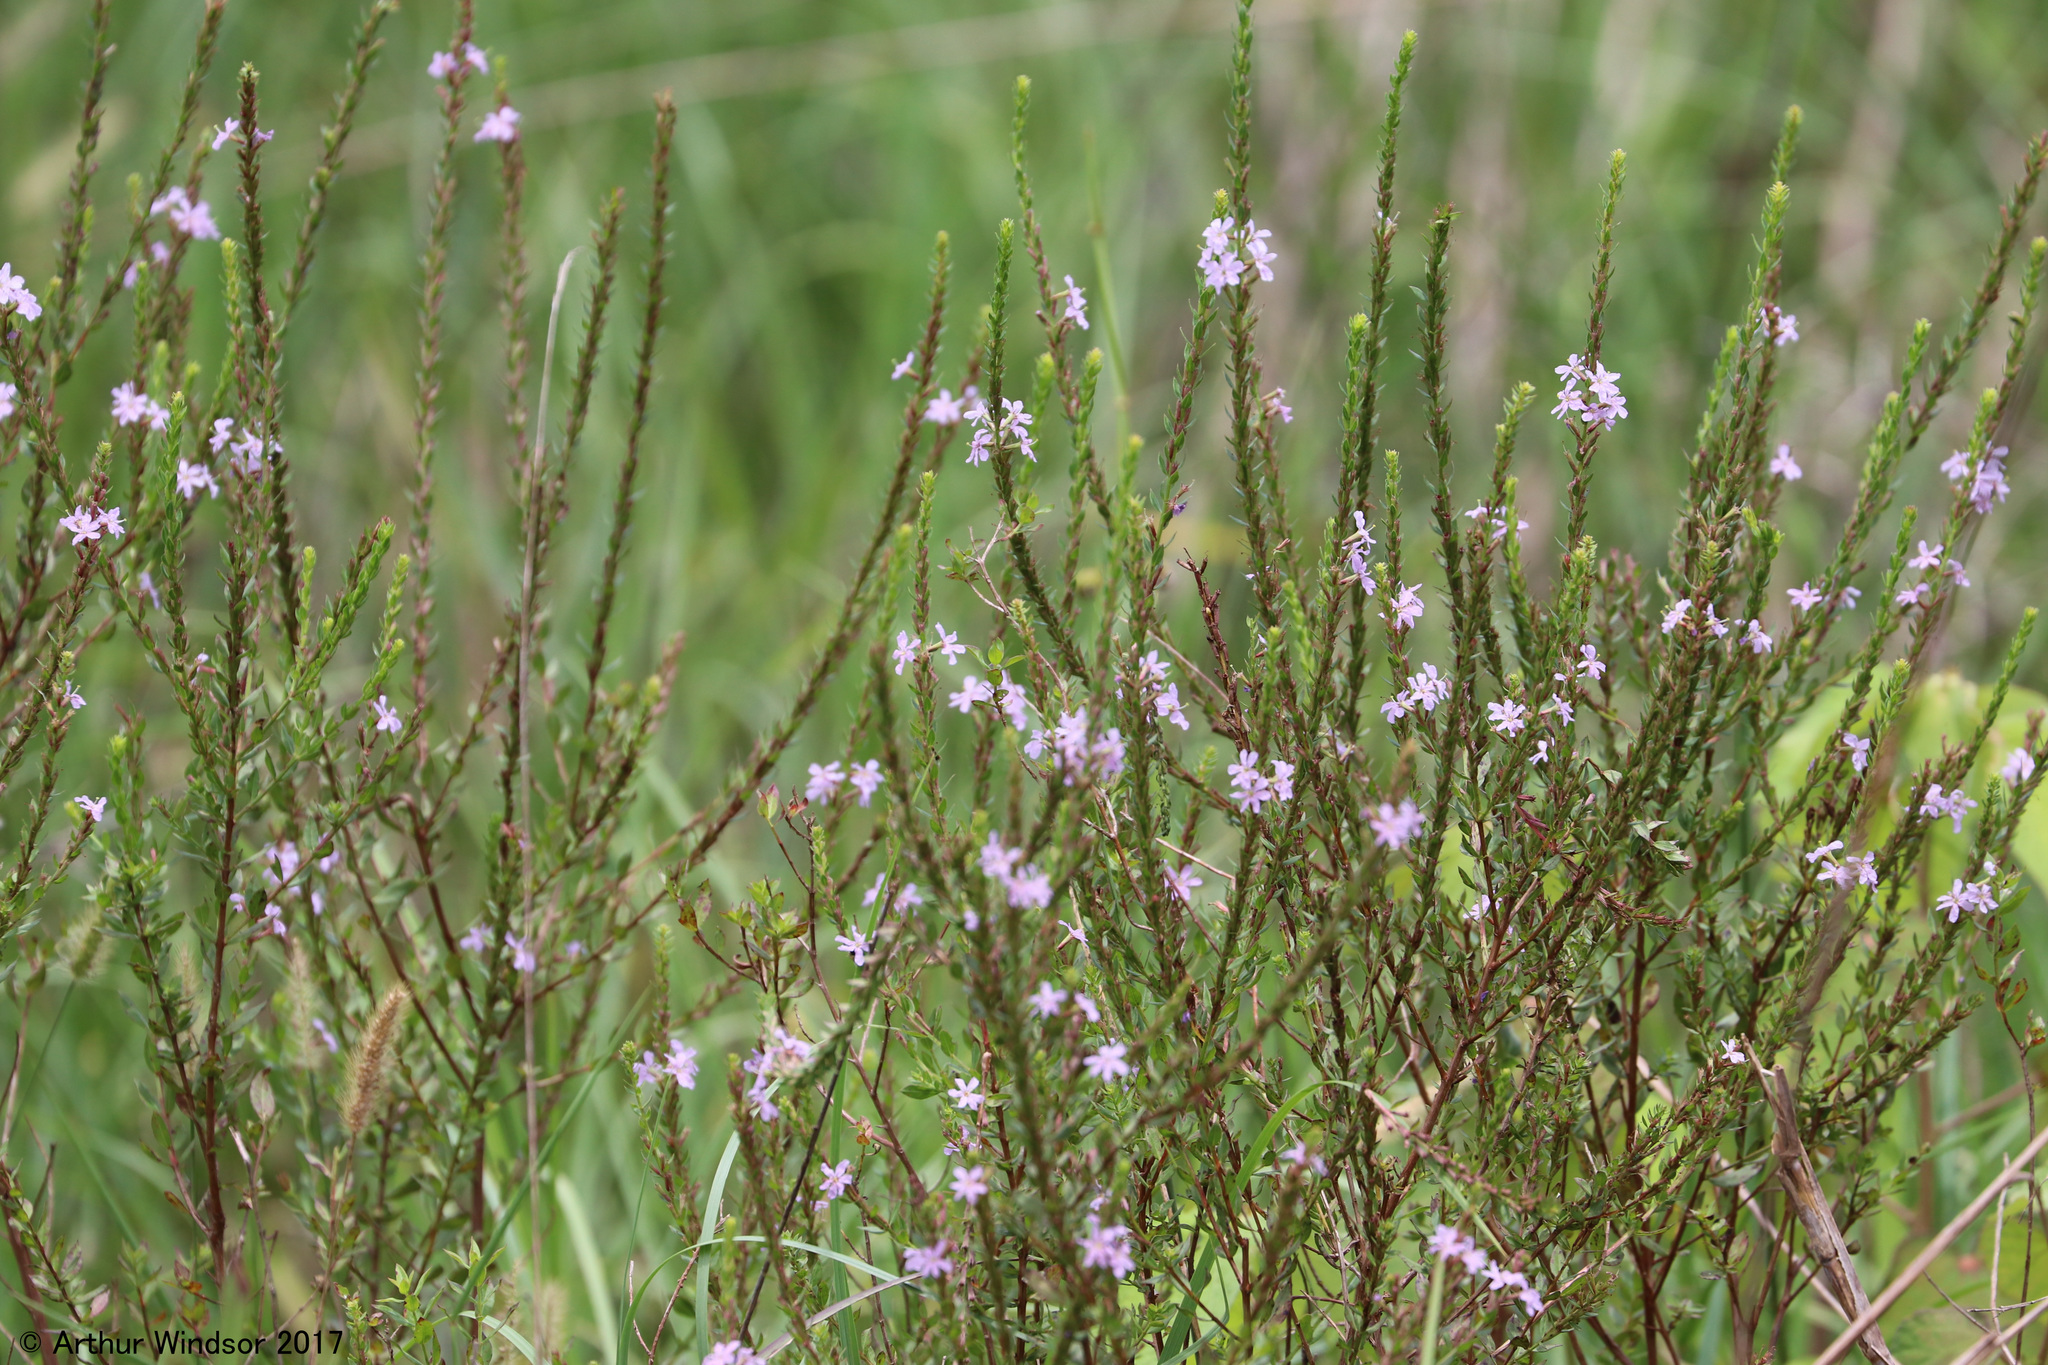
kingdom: Plantae
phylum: Tracheophyta
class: Magnoliopsida
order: Myrtales
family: Lythraceae
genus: Lythrum
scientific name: Lythrum alatum
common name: Winged loosestrife
